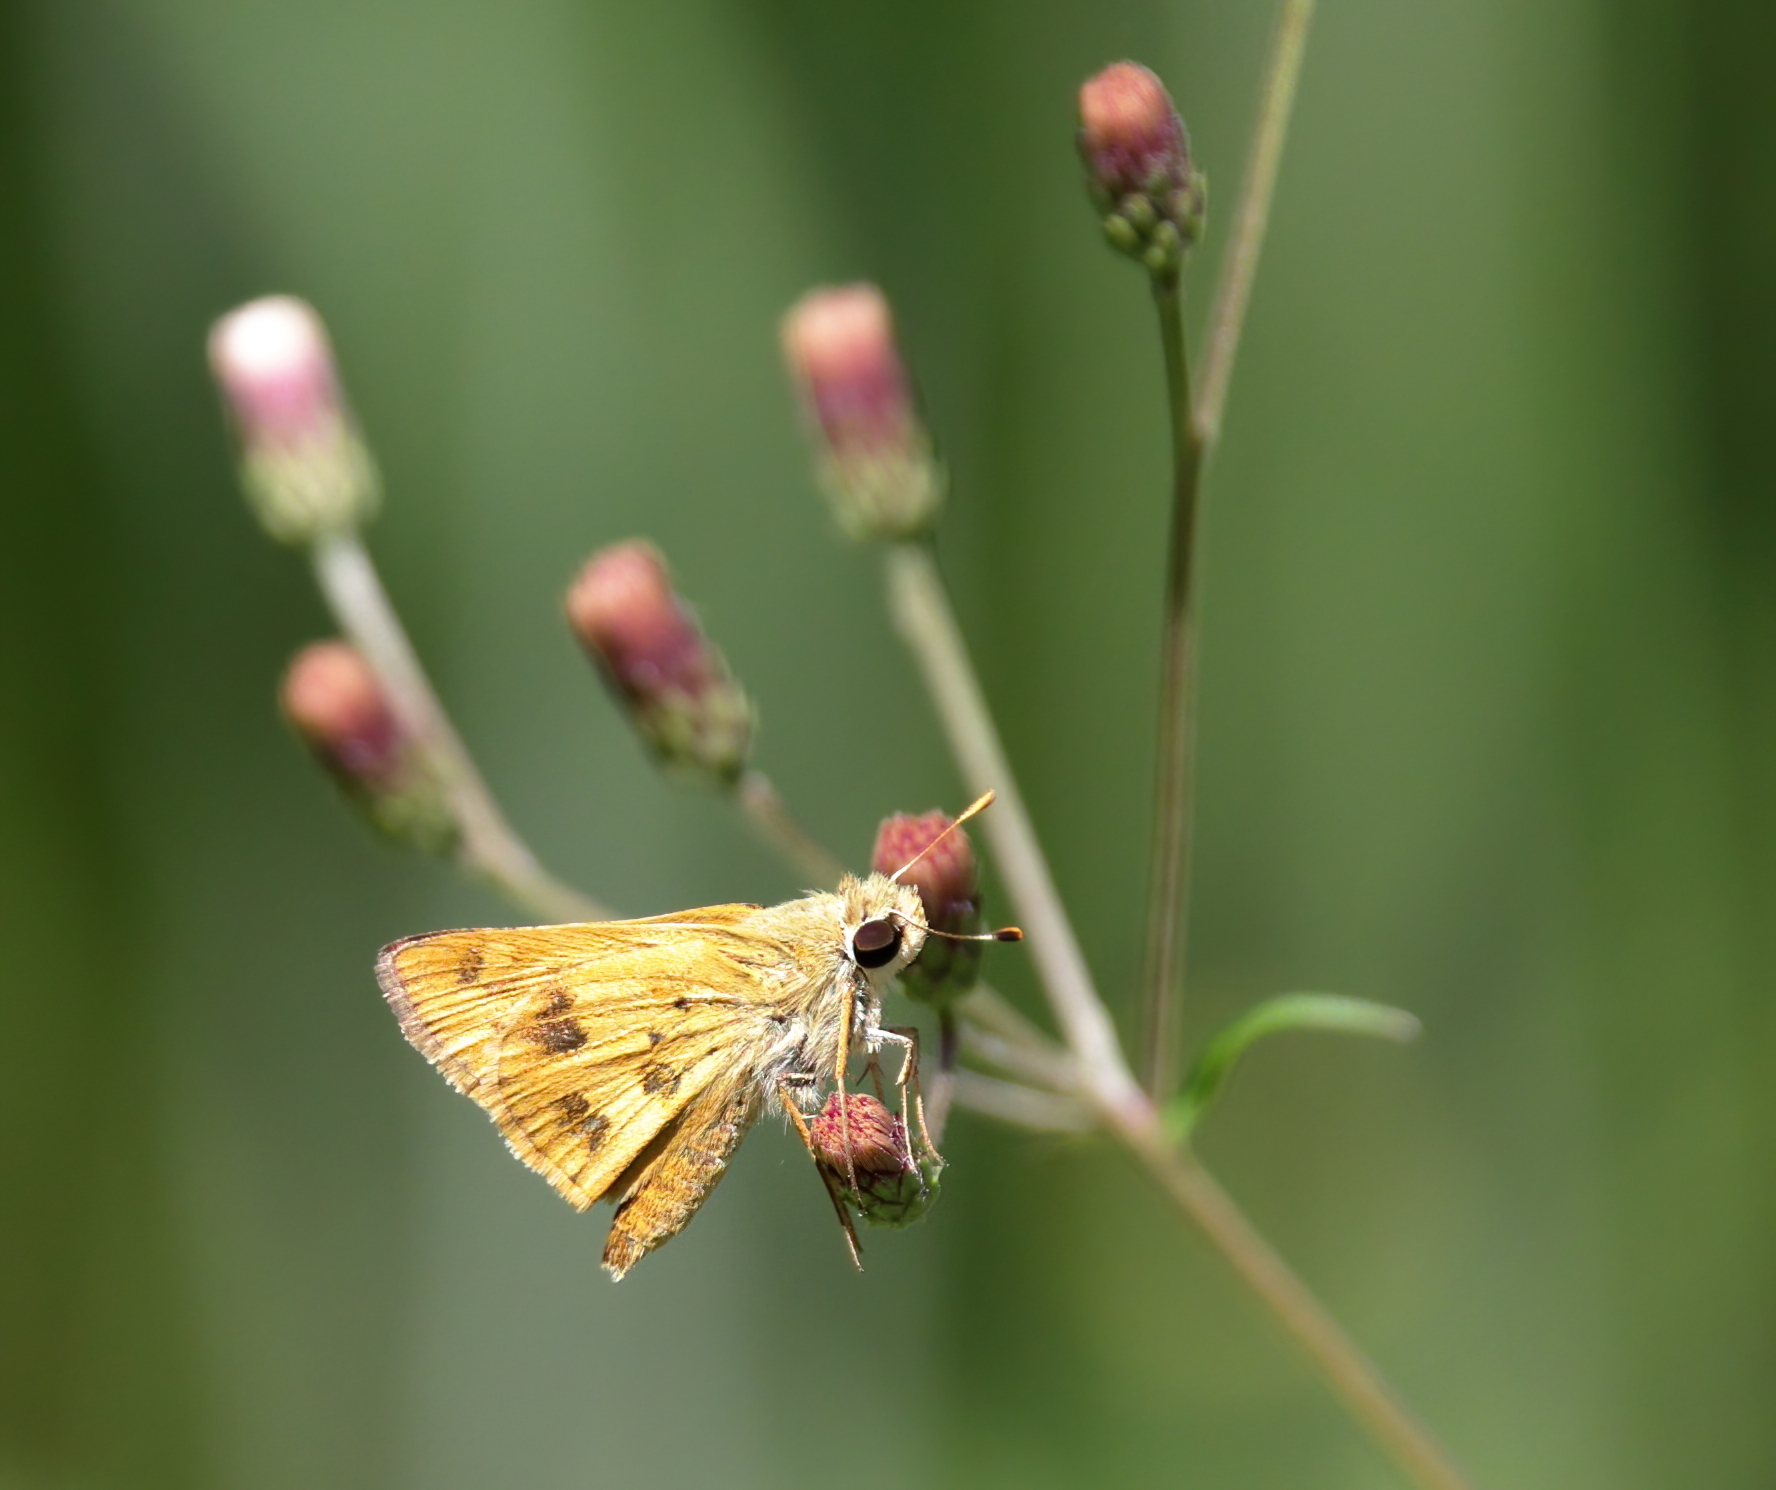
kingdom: Animalia
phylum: Arthropoda
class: Insecta
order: Lepidoptera
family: Hesperiidae
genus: Polites
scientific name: Polites vibex
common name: Whirlabout
